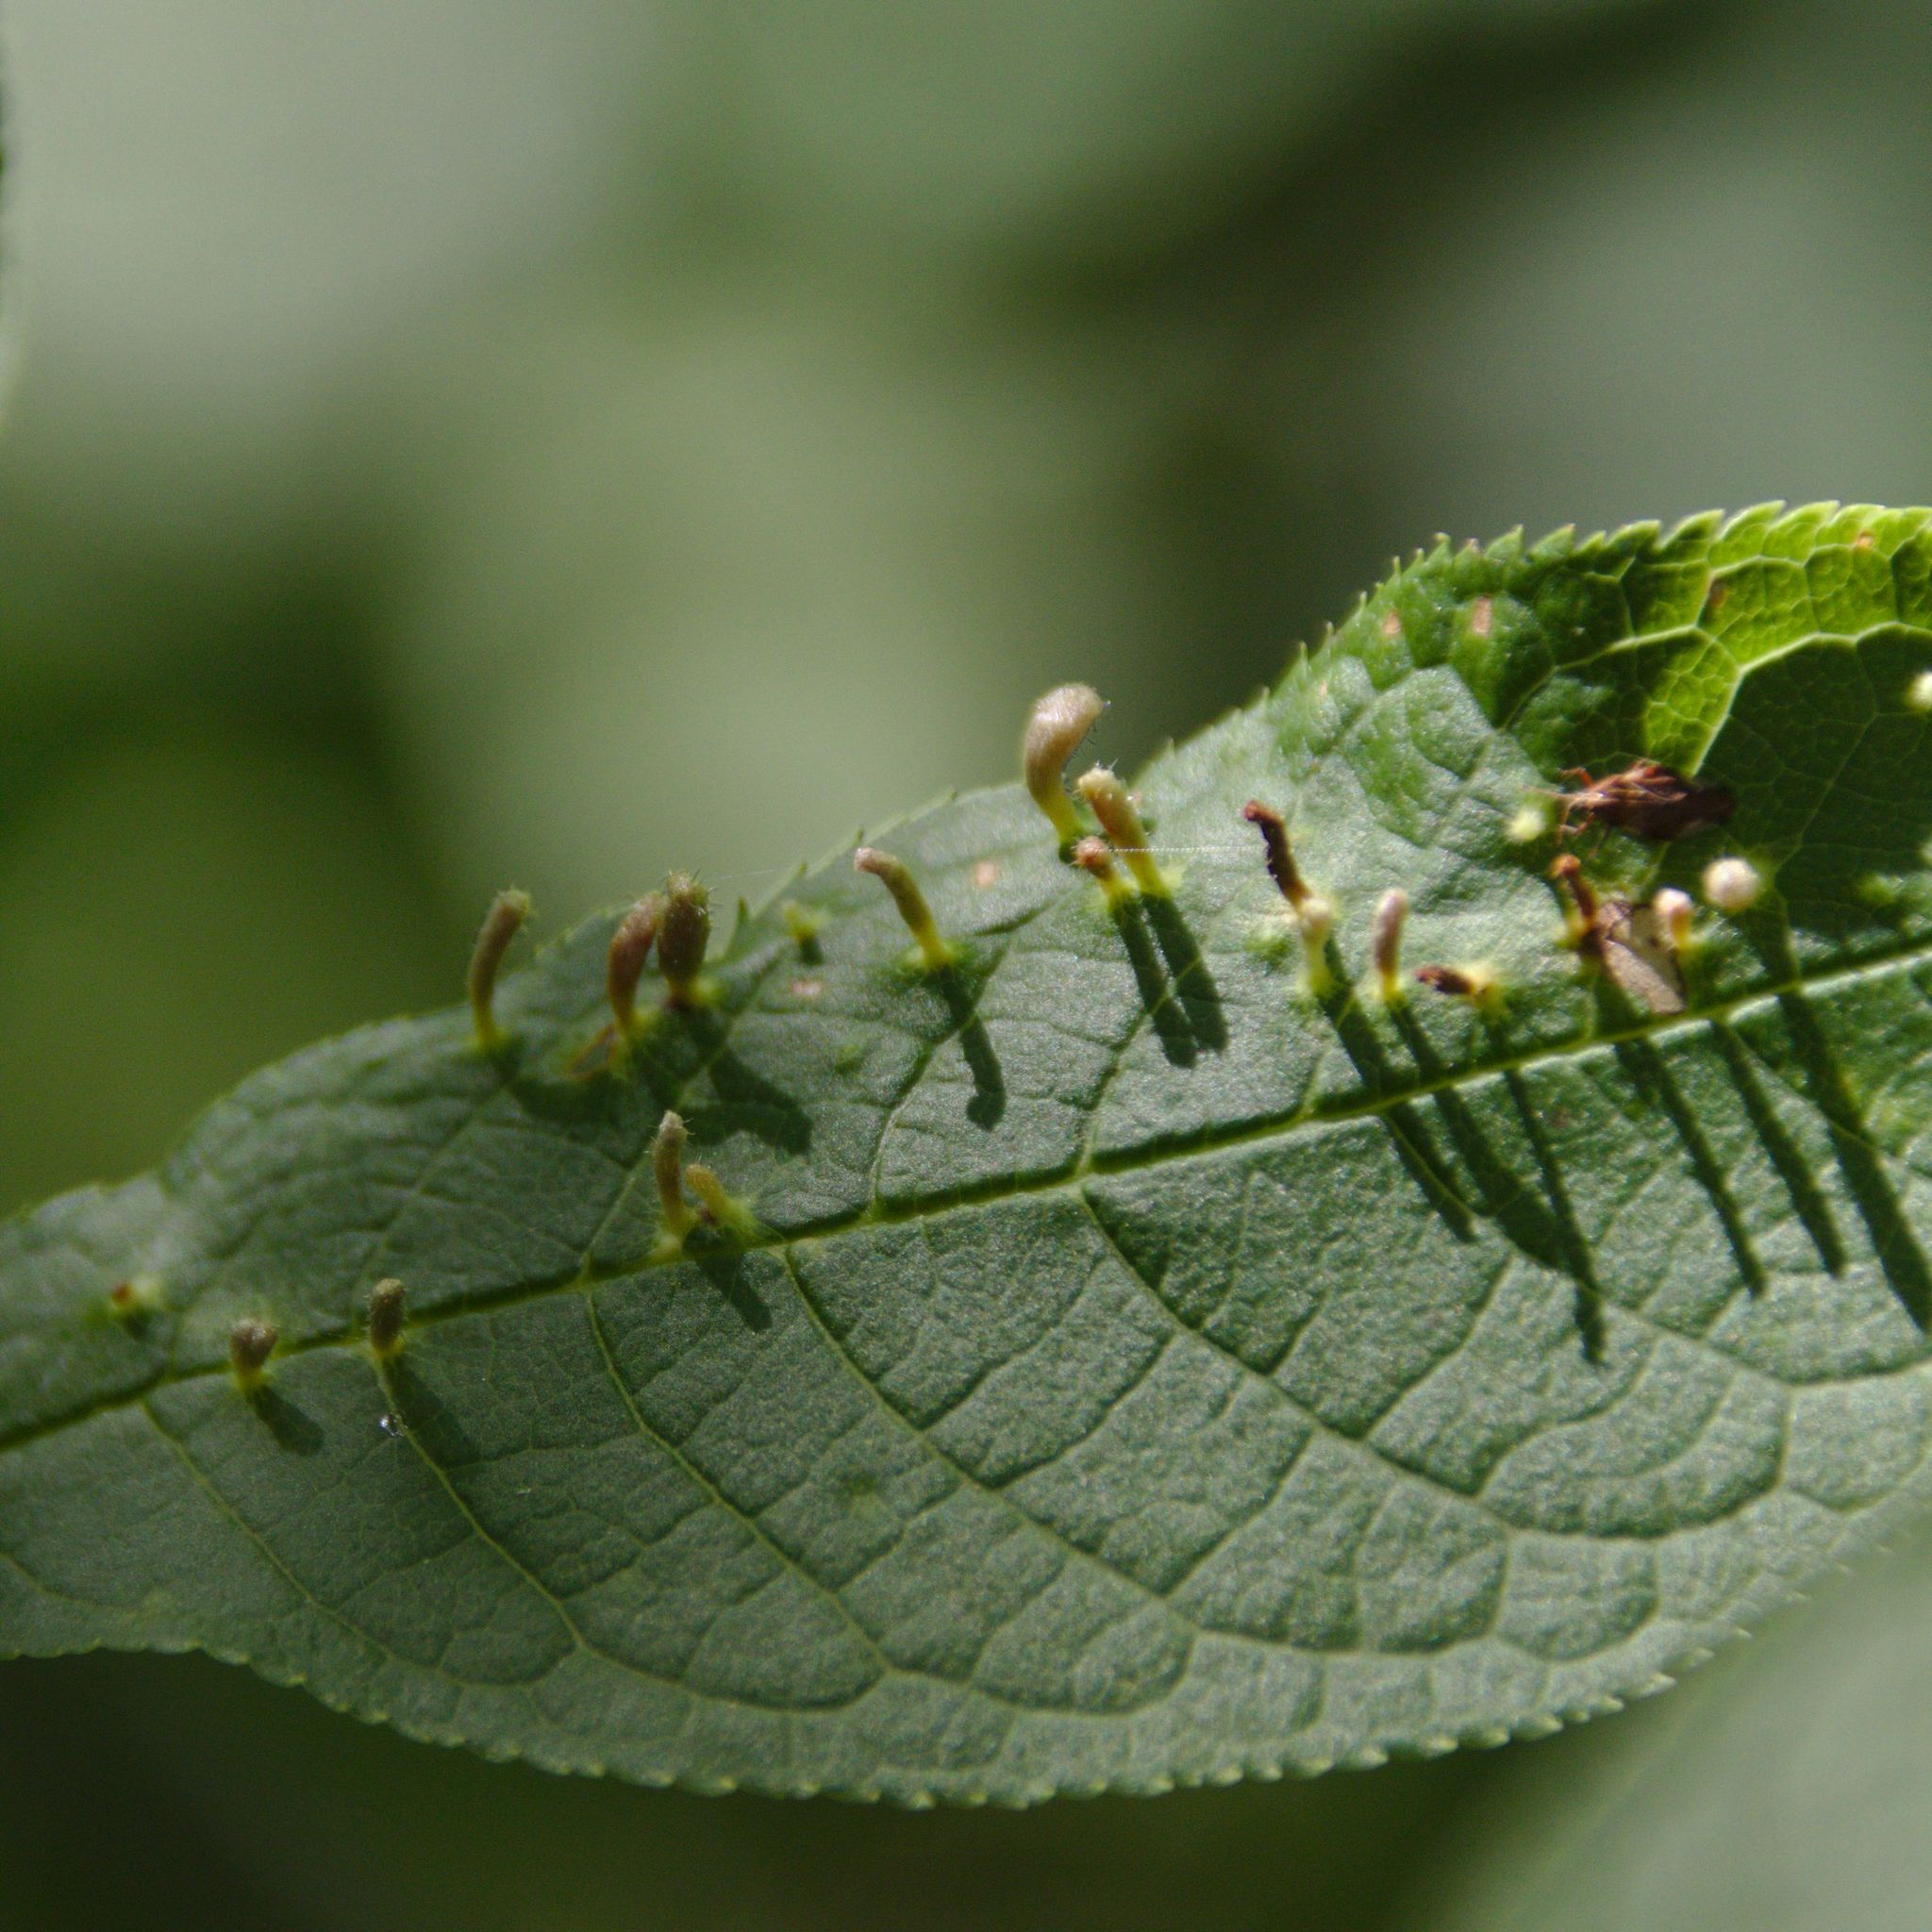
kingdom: Animalia
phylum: Arthropoda
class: Arachnida
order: Trombidiformes
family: Eriophyidae
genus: Phyllocoptes
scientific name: Phyllocoptes eupadi
